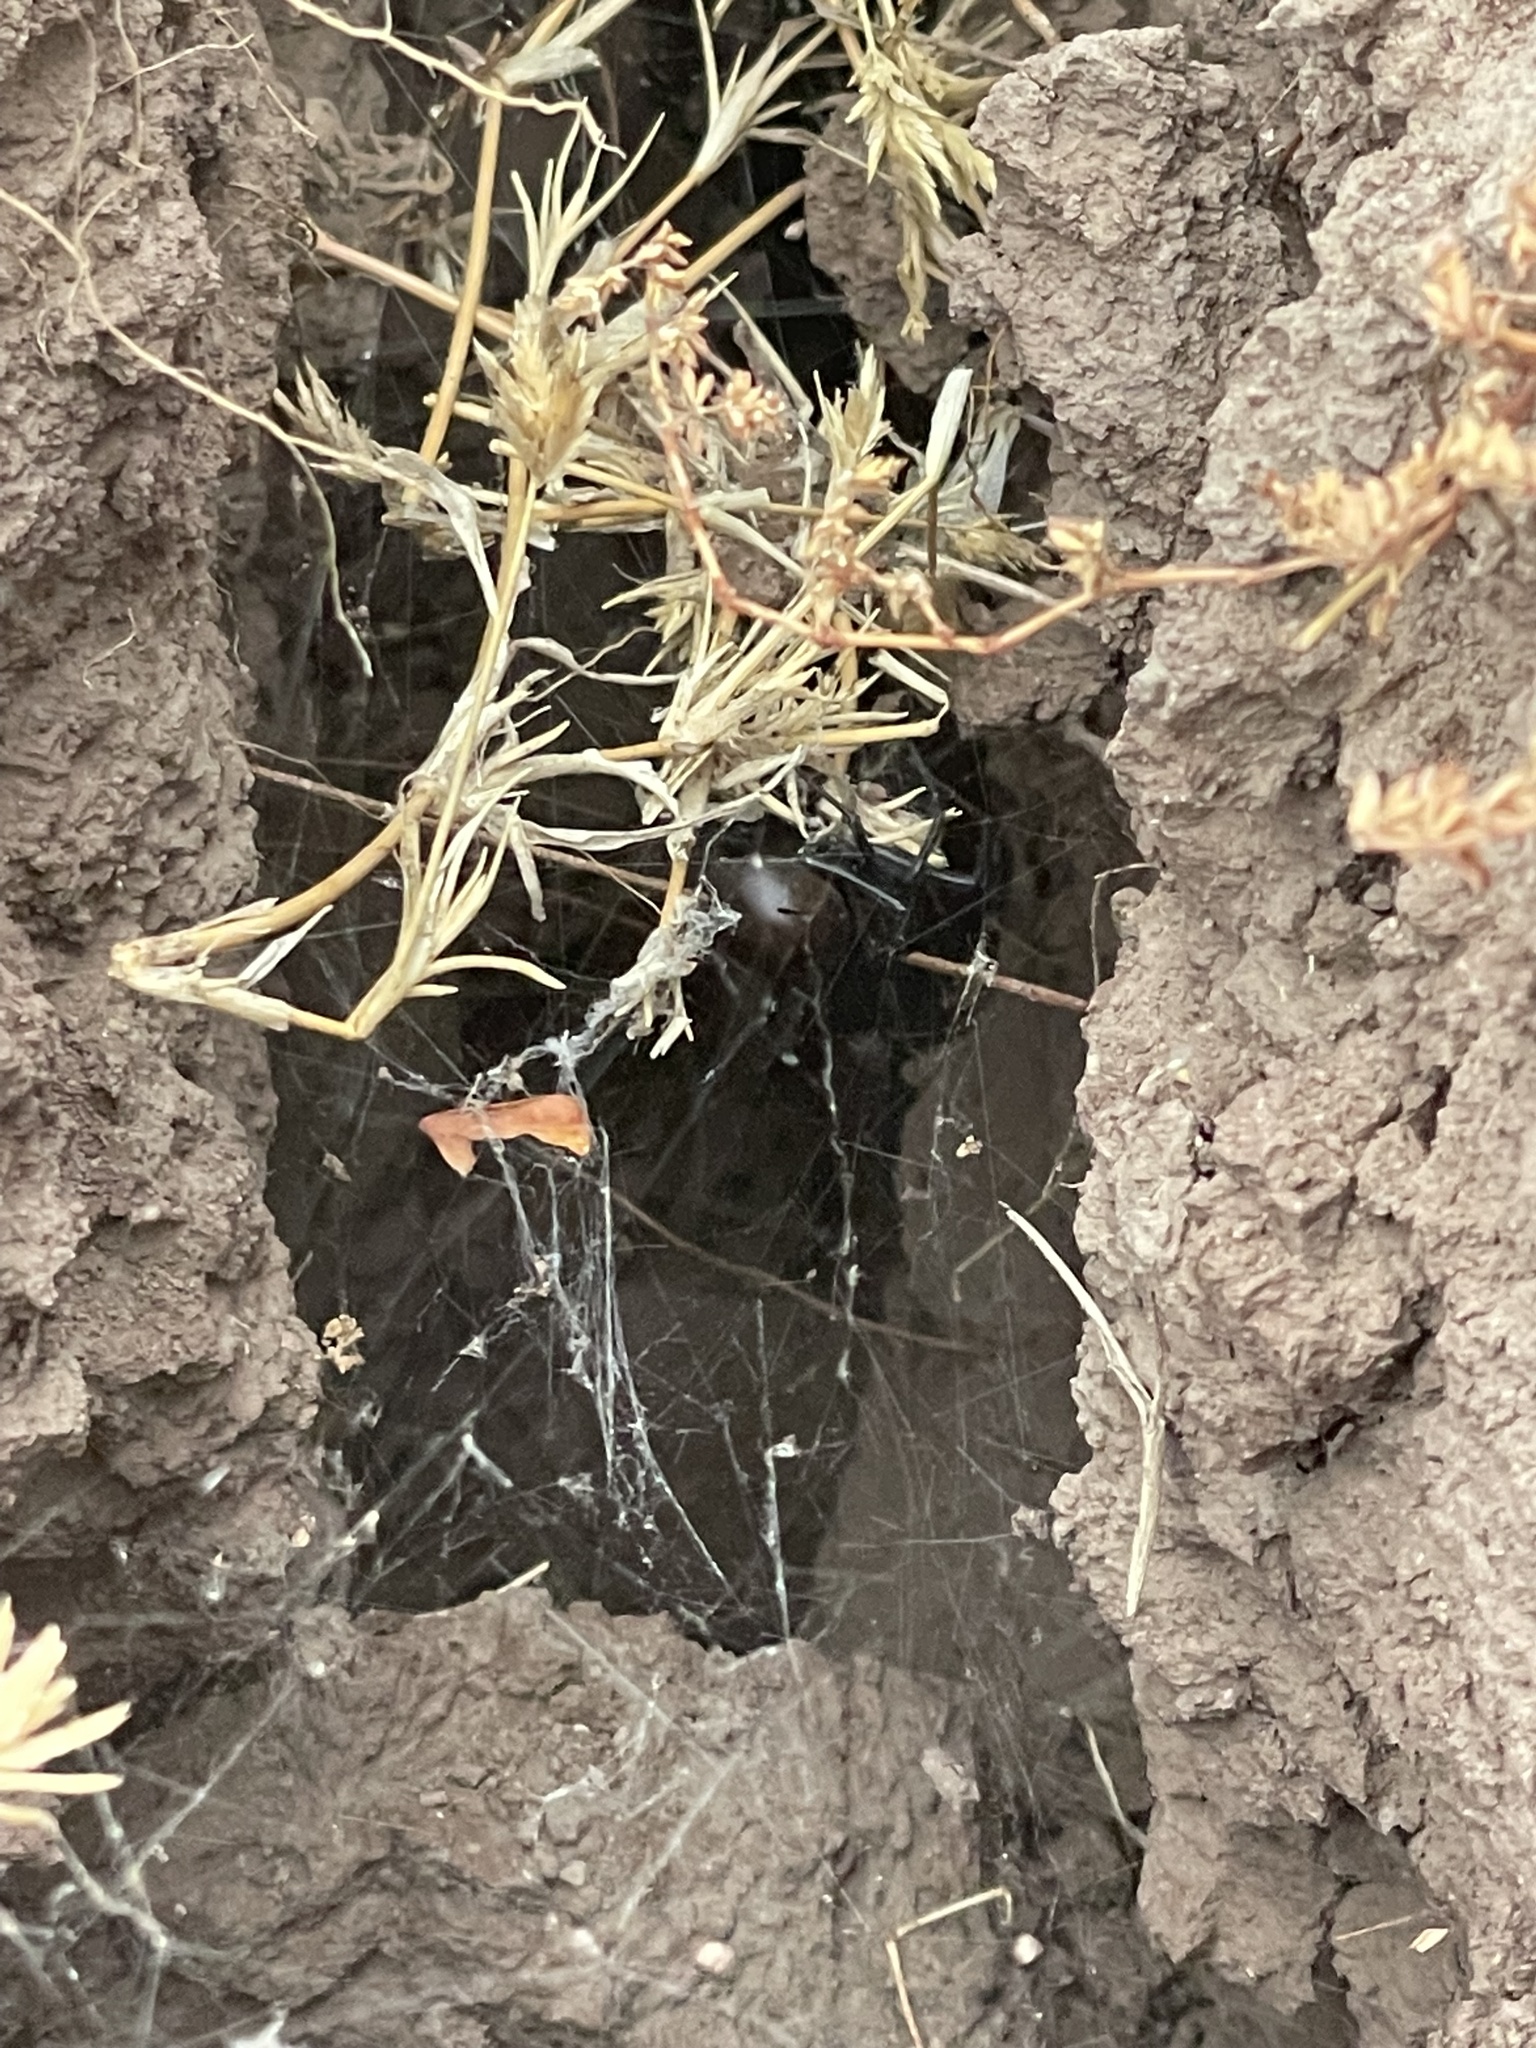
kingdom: Animalia
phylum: Arthropoda
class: Arachnida
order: Araneae
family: Theridiidae
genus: Latrodectus
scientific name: Latrodectus hesperus
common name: Western black widow
